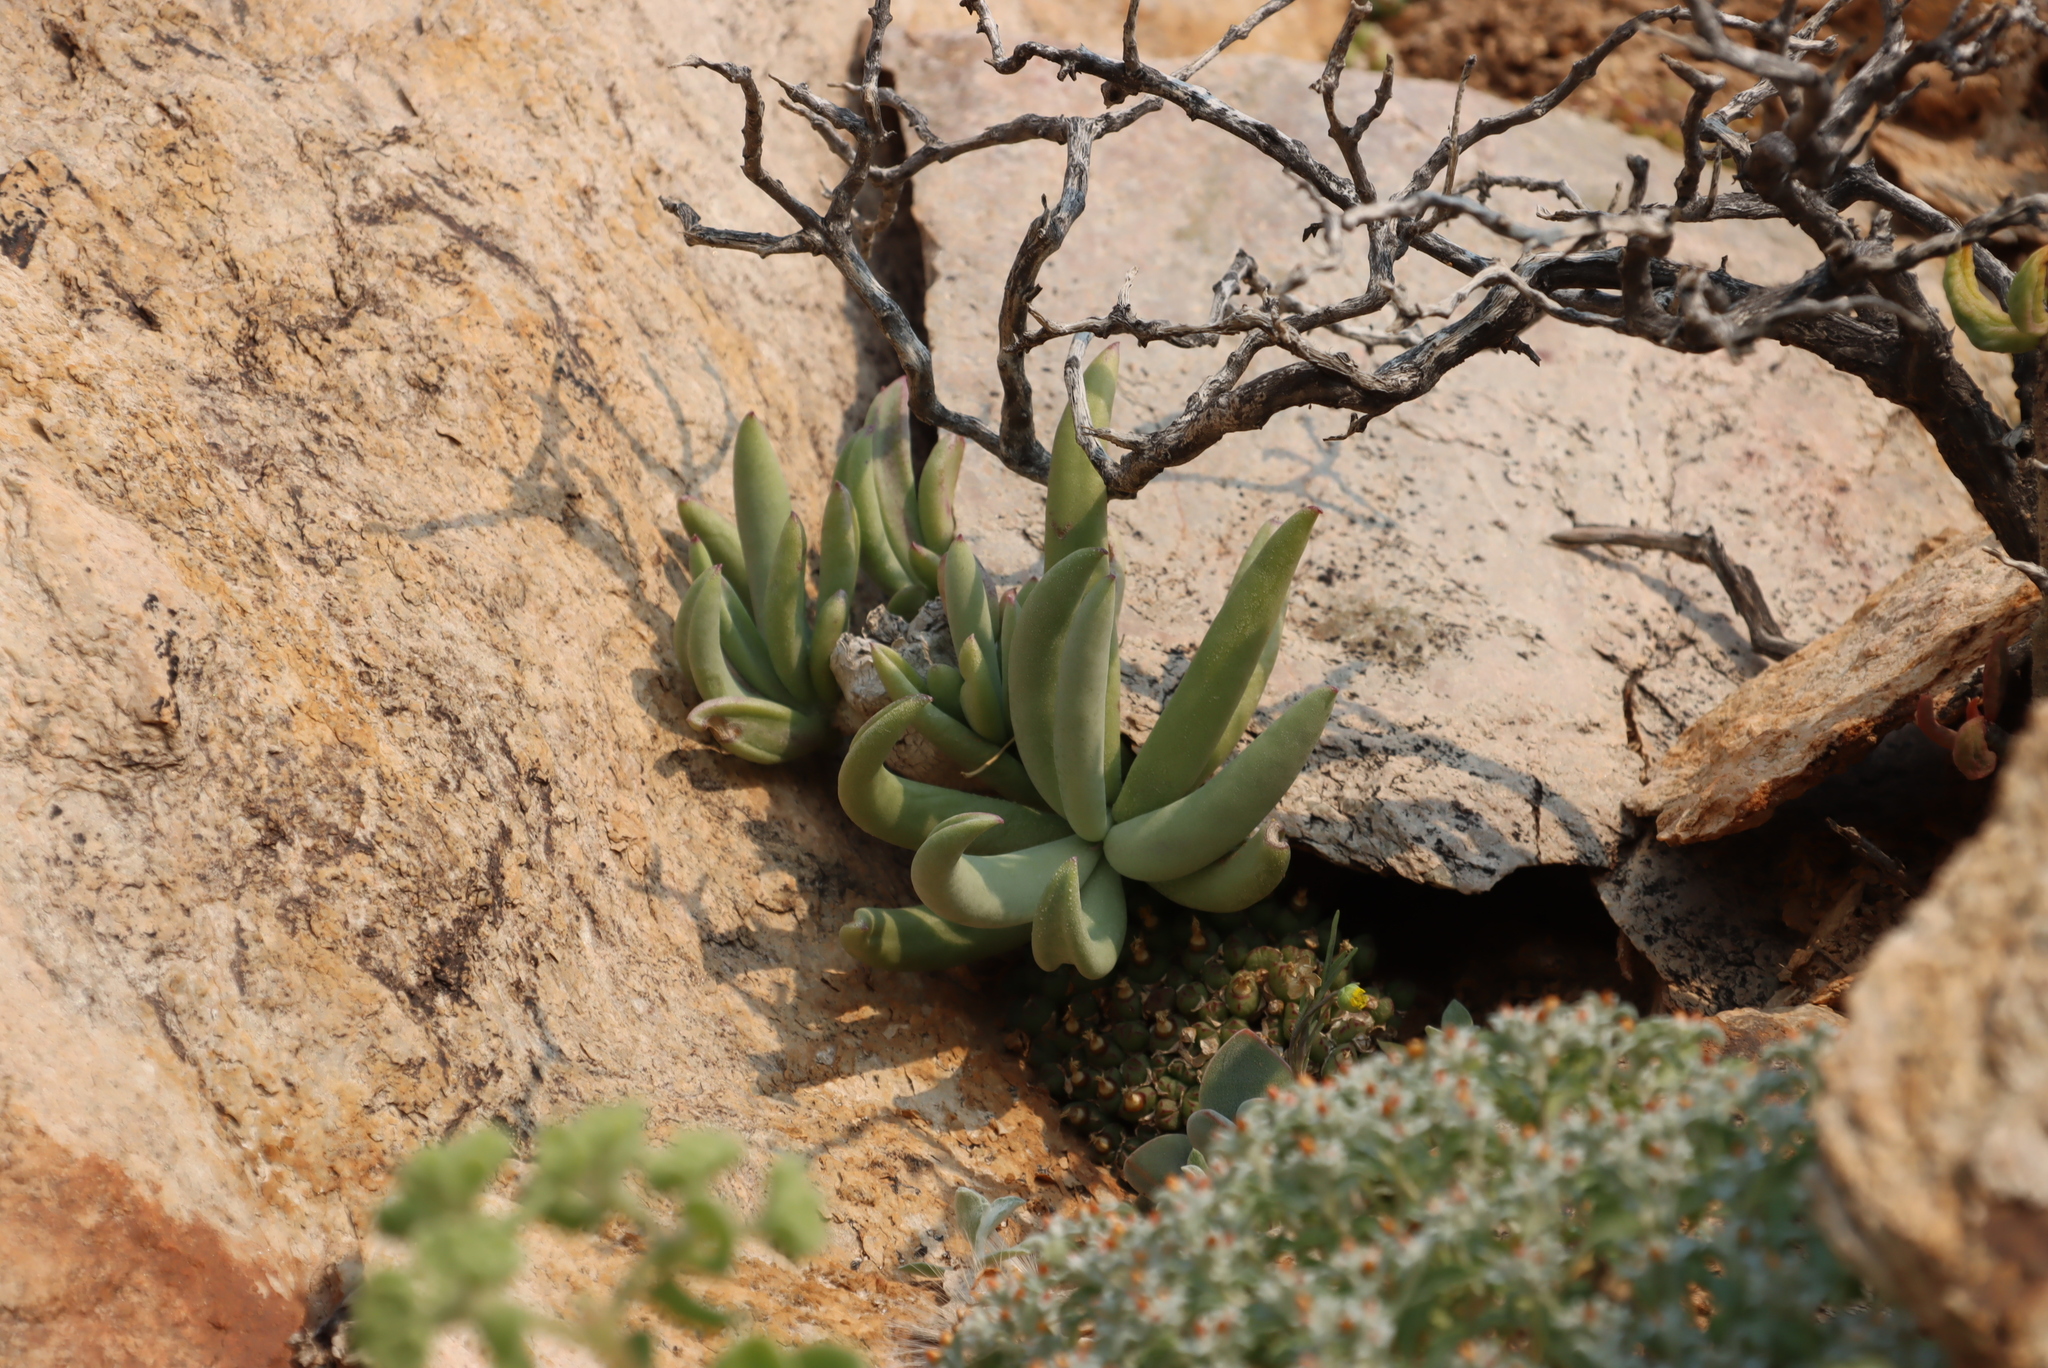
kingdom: Plantae
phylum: Tracheophyta
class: Magnoliopsida
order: Asterales
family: Asteraceae
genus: Kleinia
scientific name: Kleinia cephalophora
